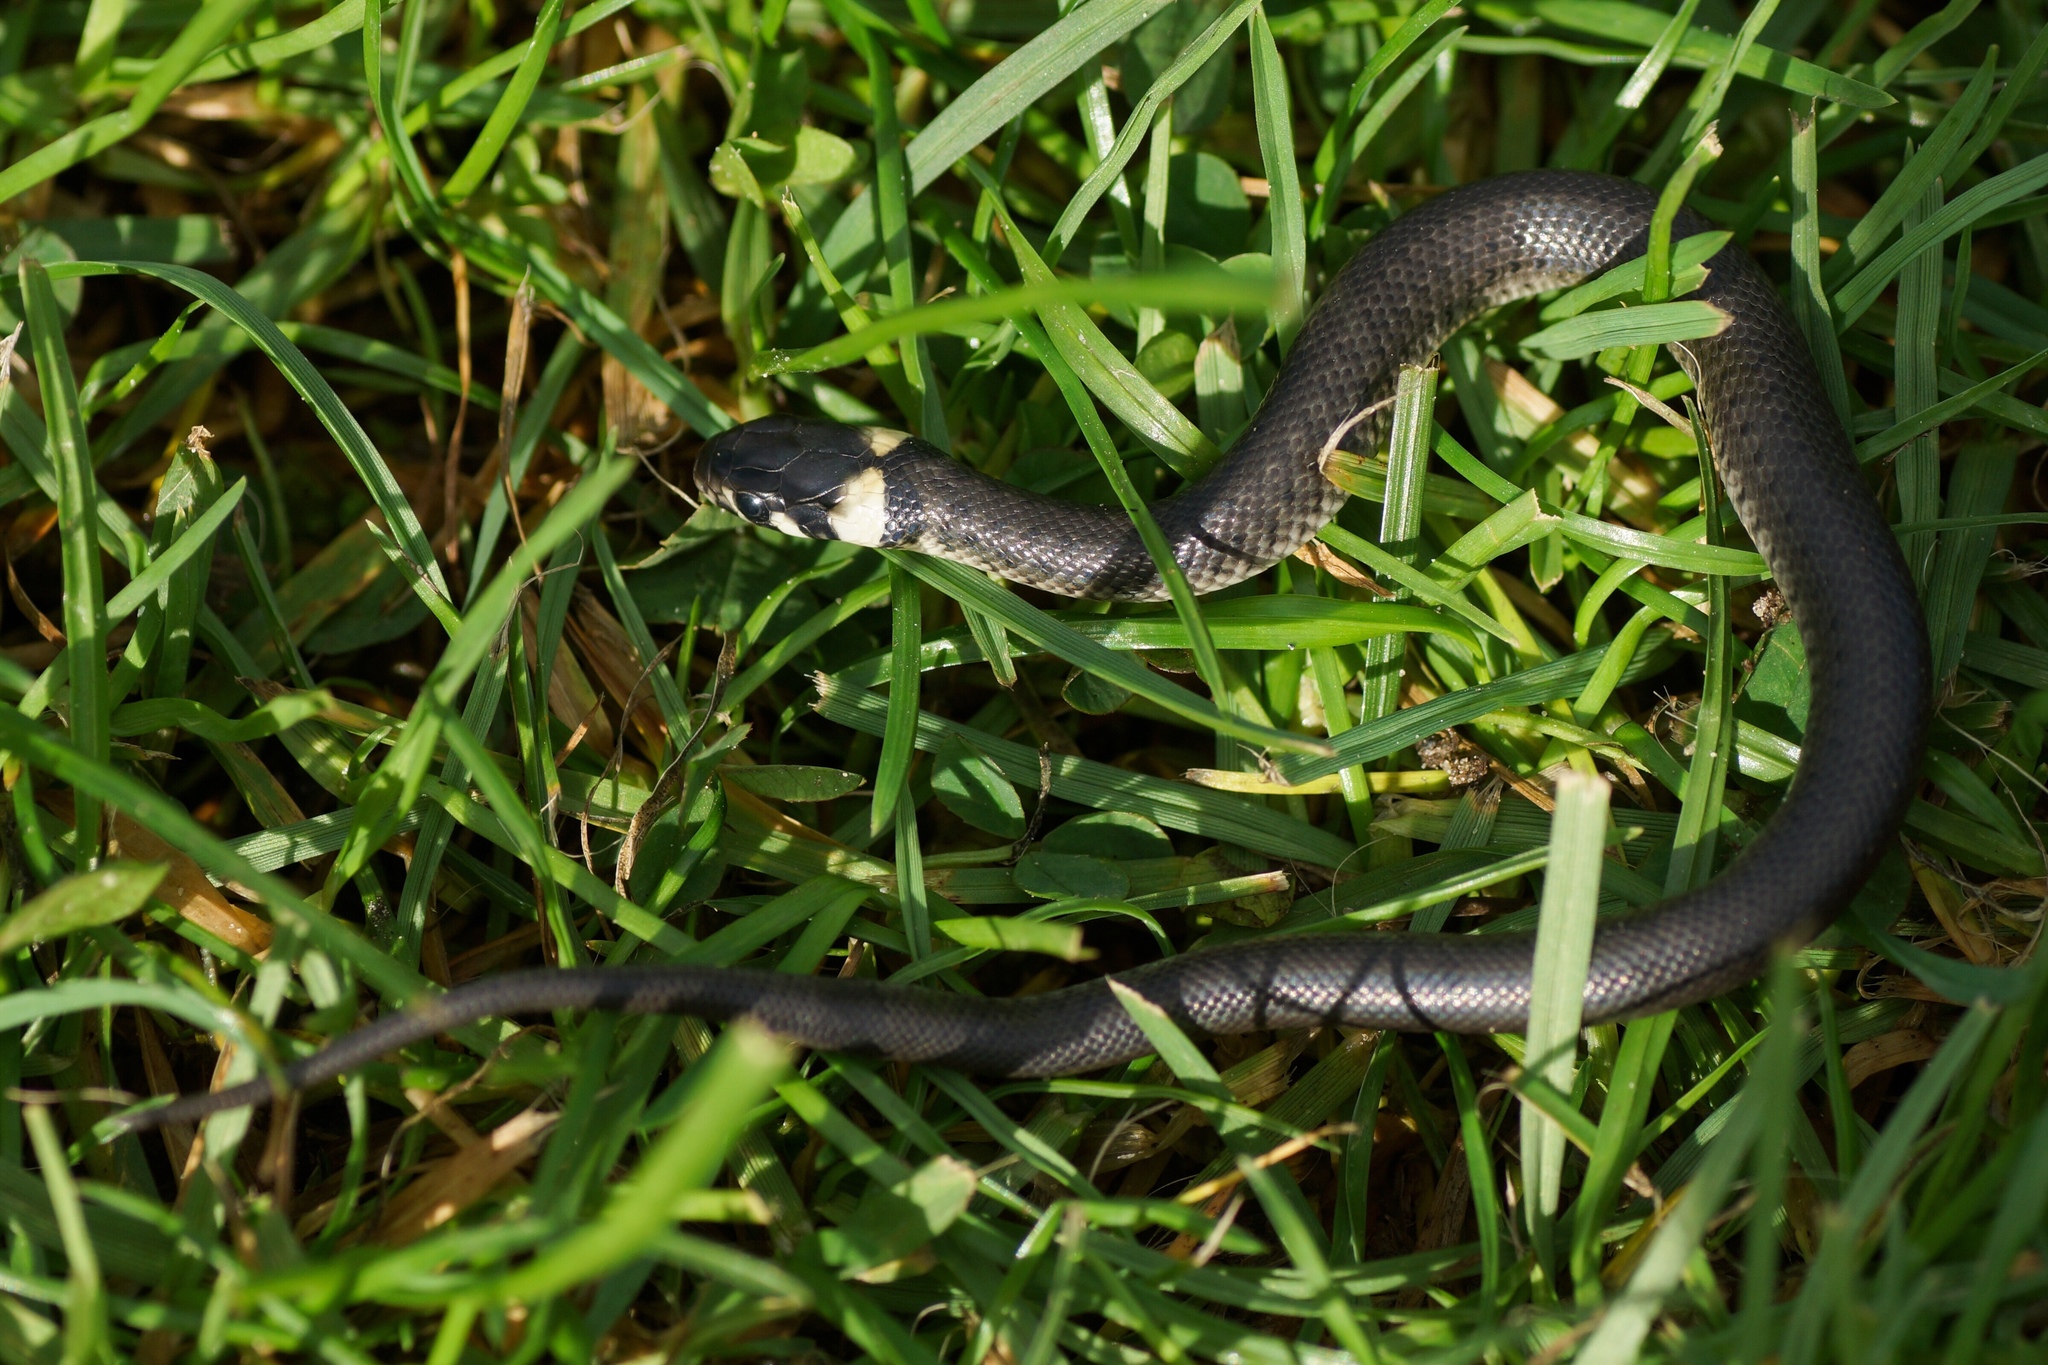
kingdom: Animalia
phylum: Chordata
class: Squamata
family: Colubridae
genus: Natrix
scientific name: Natrix natrix
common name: Grass snake
